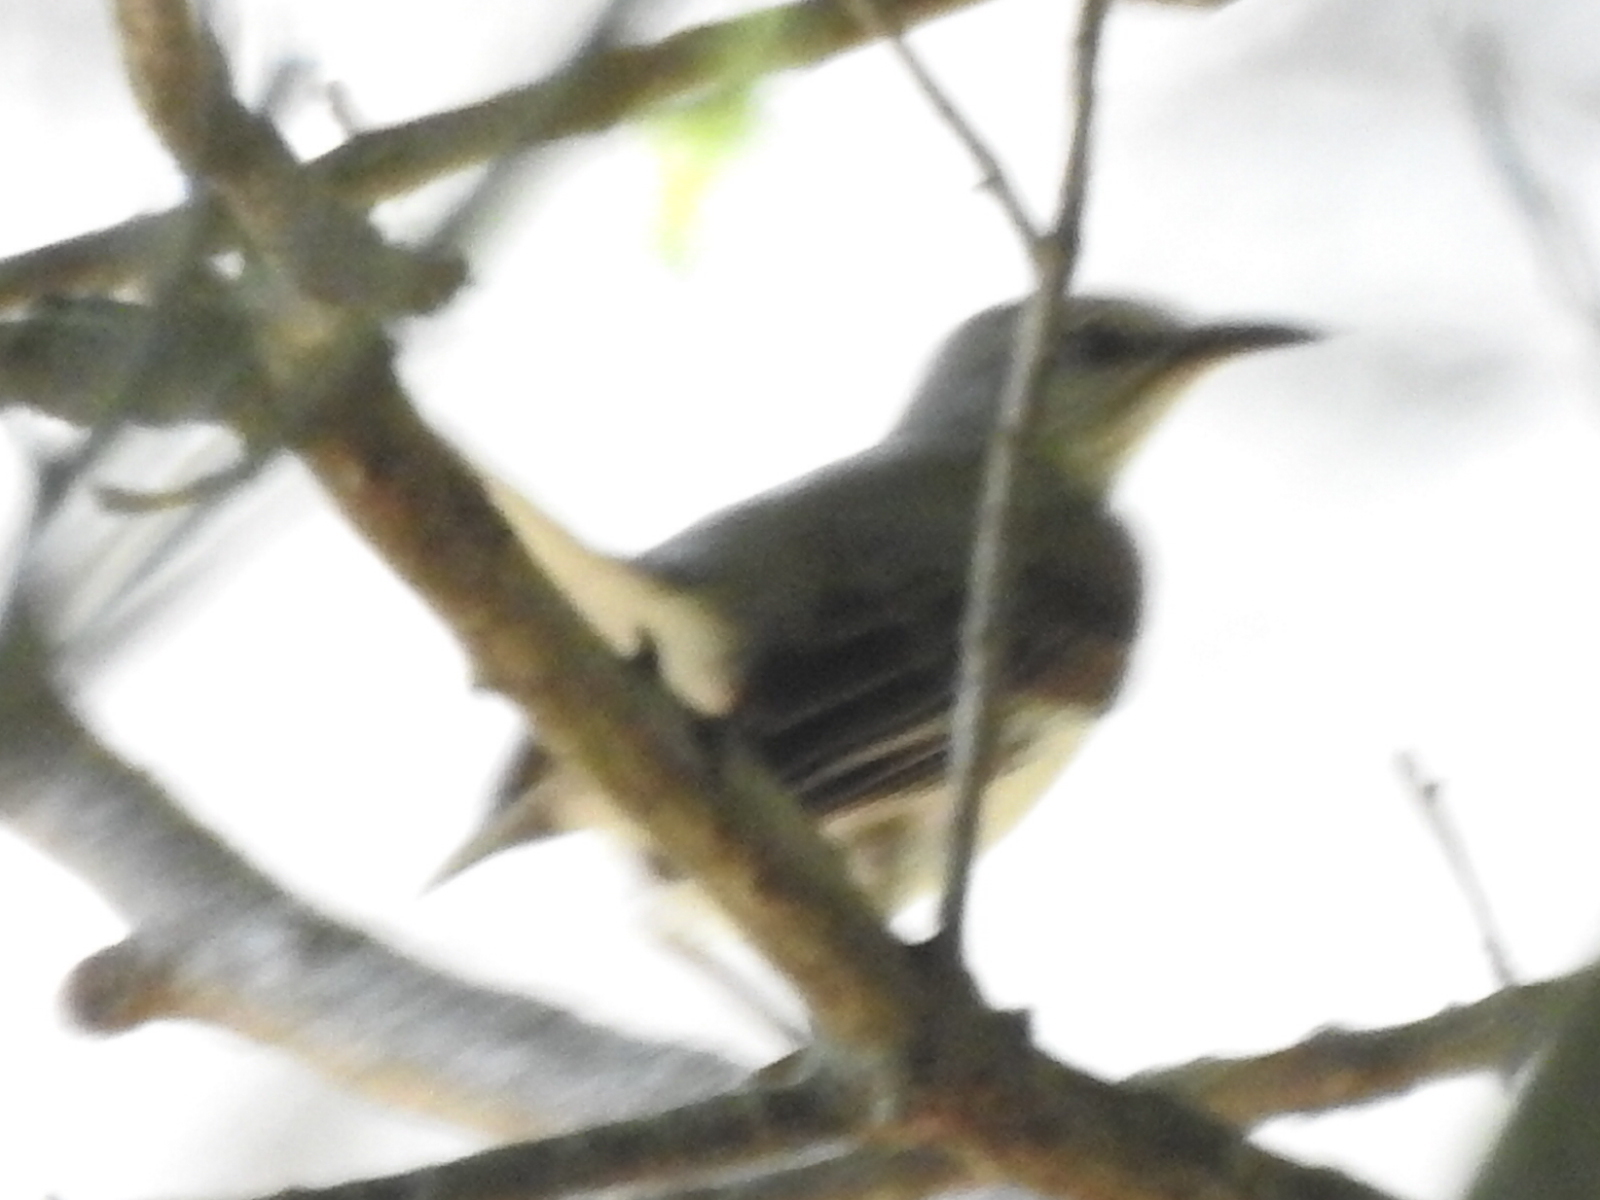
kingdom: Animalia
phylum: Chordata
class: Aves
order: Passeriformes
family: Mimidae
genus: Mimus
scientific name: Mimus polyglottos
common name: Northern mockingbird
